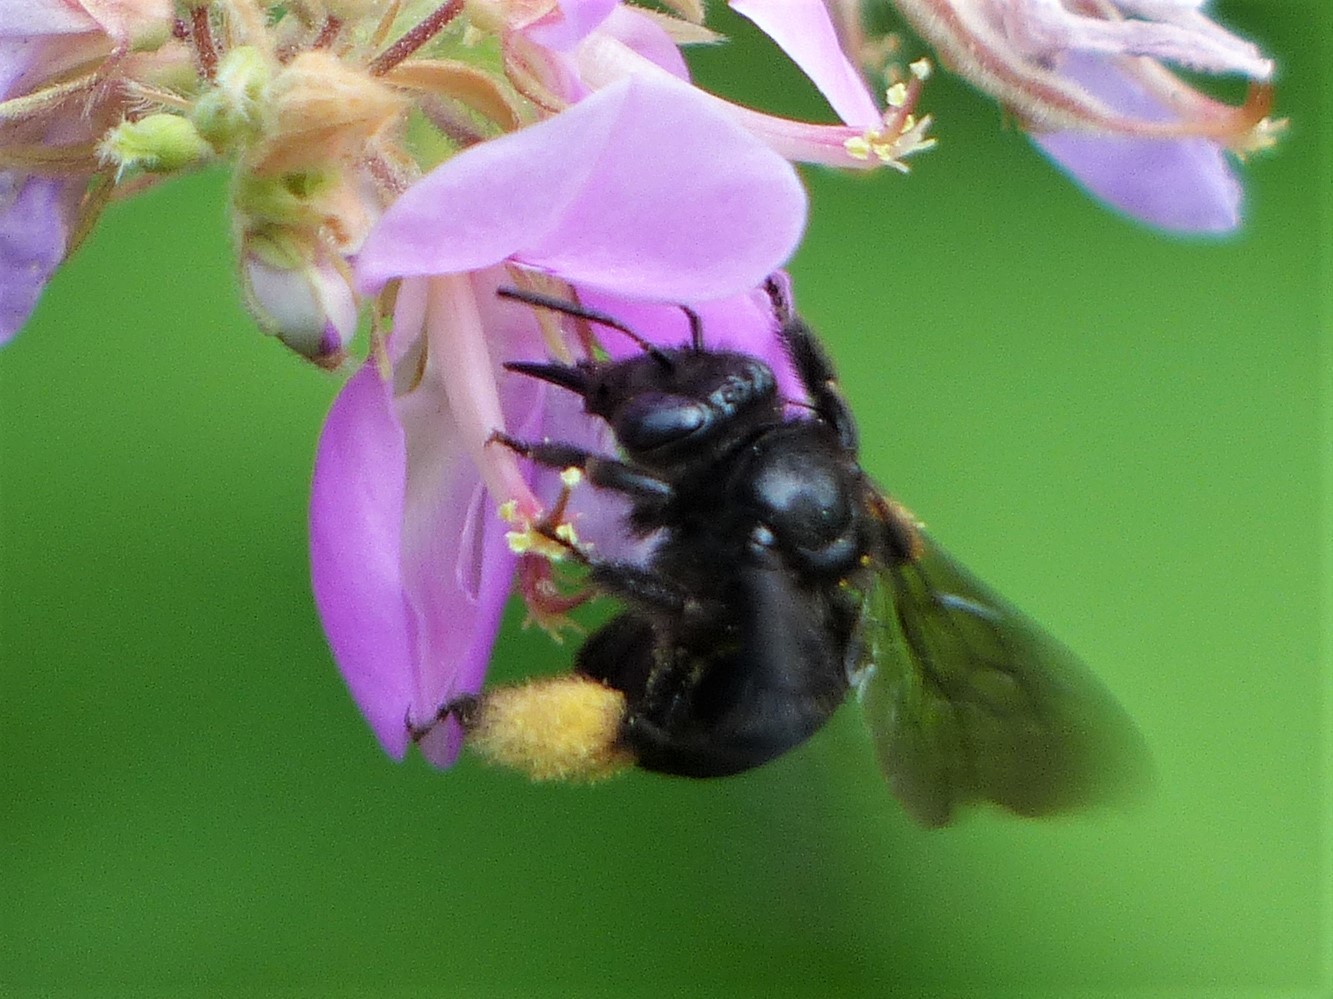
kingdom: Animalia
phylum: Arthropoda
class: Insecta
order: Hymenoptera
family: Apidae
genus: Melissodes
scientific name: Melissodes bimaculatus
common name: Two-spotted long-horned bee
